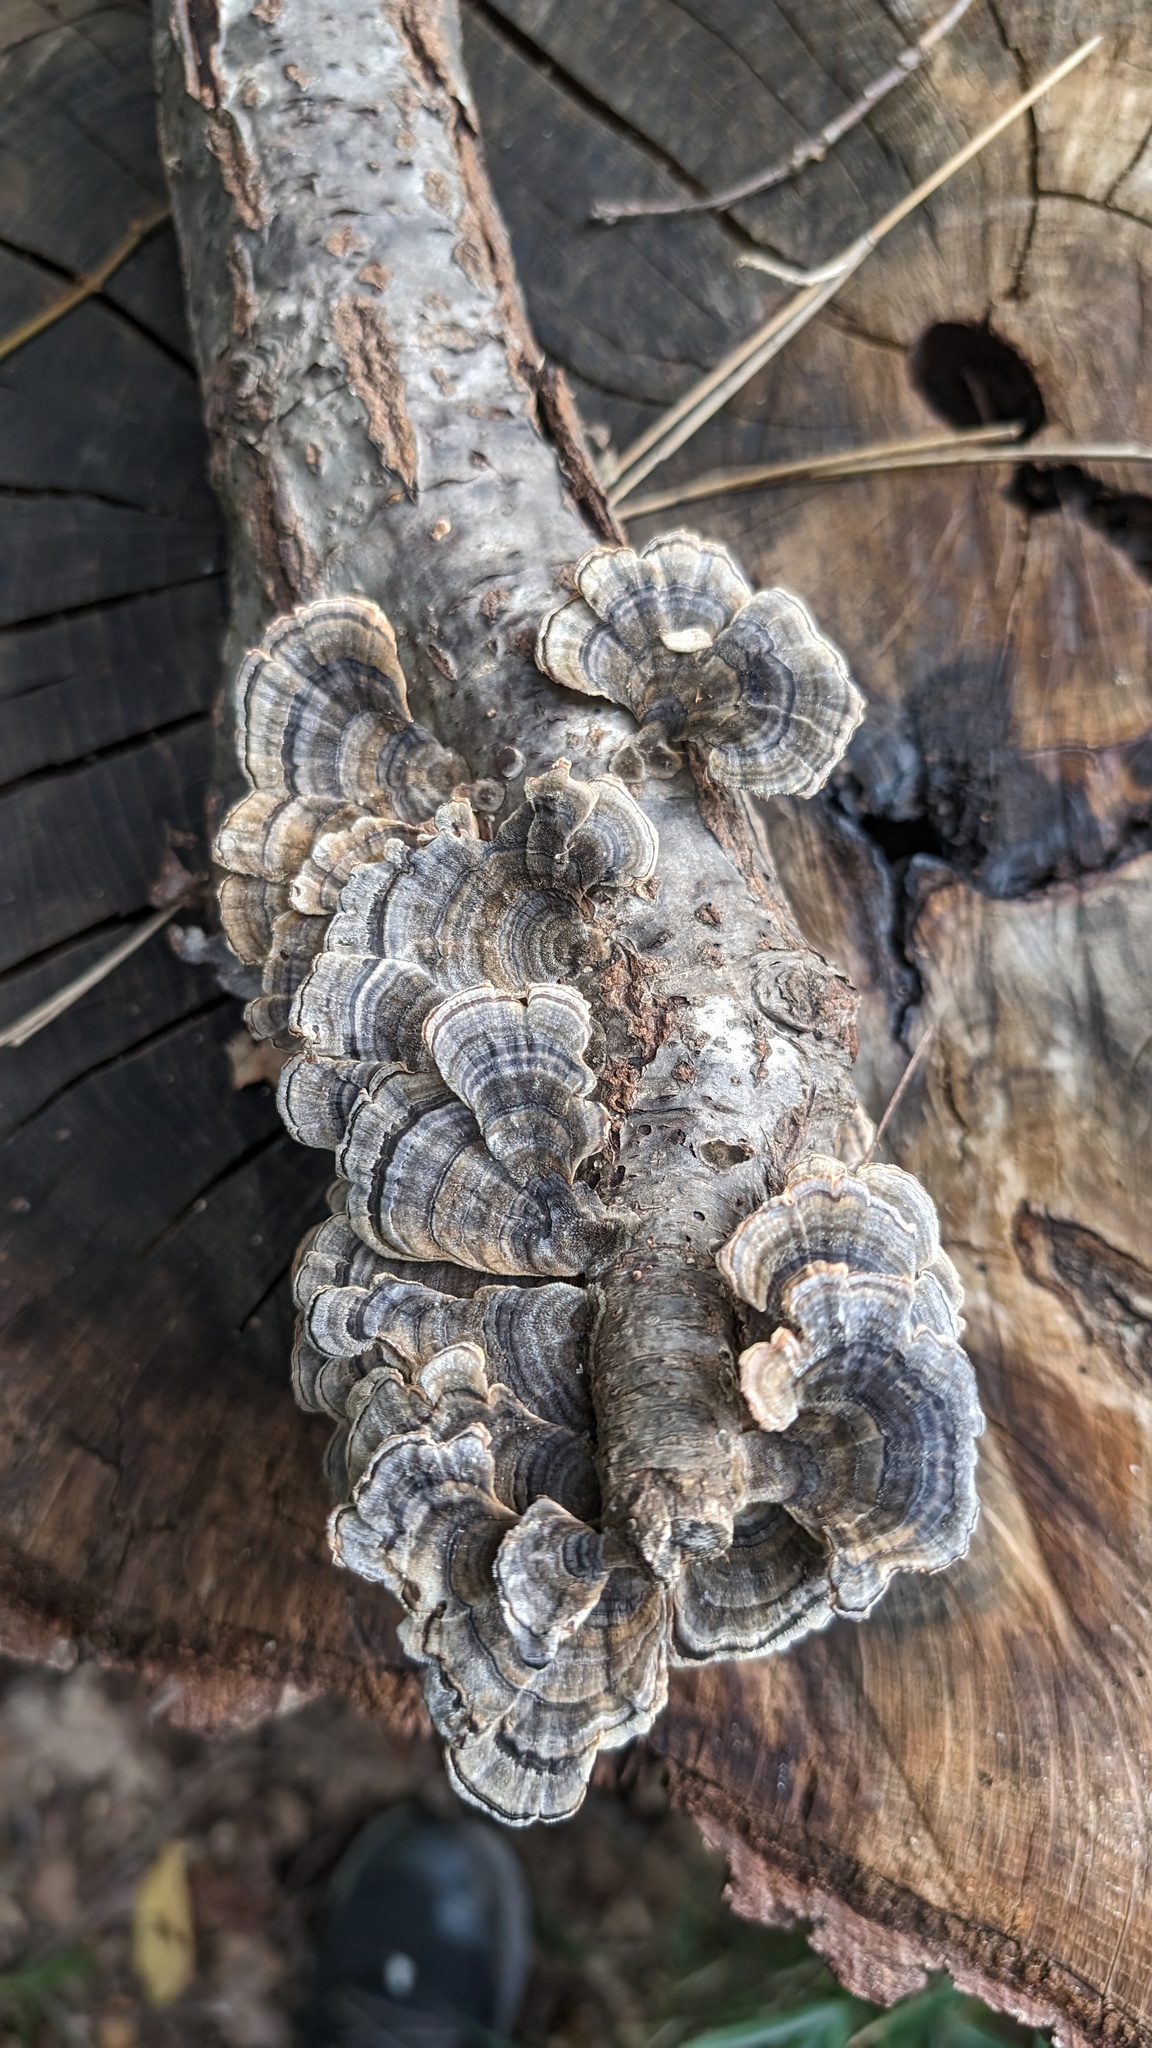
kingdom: Fungi
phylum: Basidiomycota
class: Agaricomycetes
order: Polyporales
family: Polyporaceae
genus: Trametes
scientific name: Trametes versicolor
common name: Turkeytail
